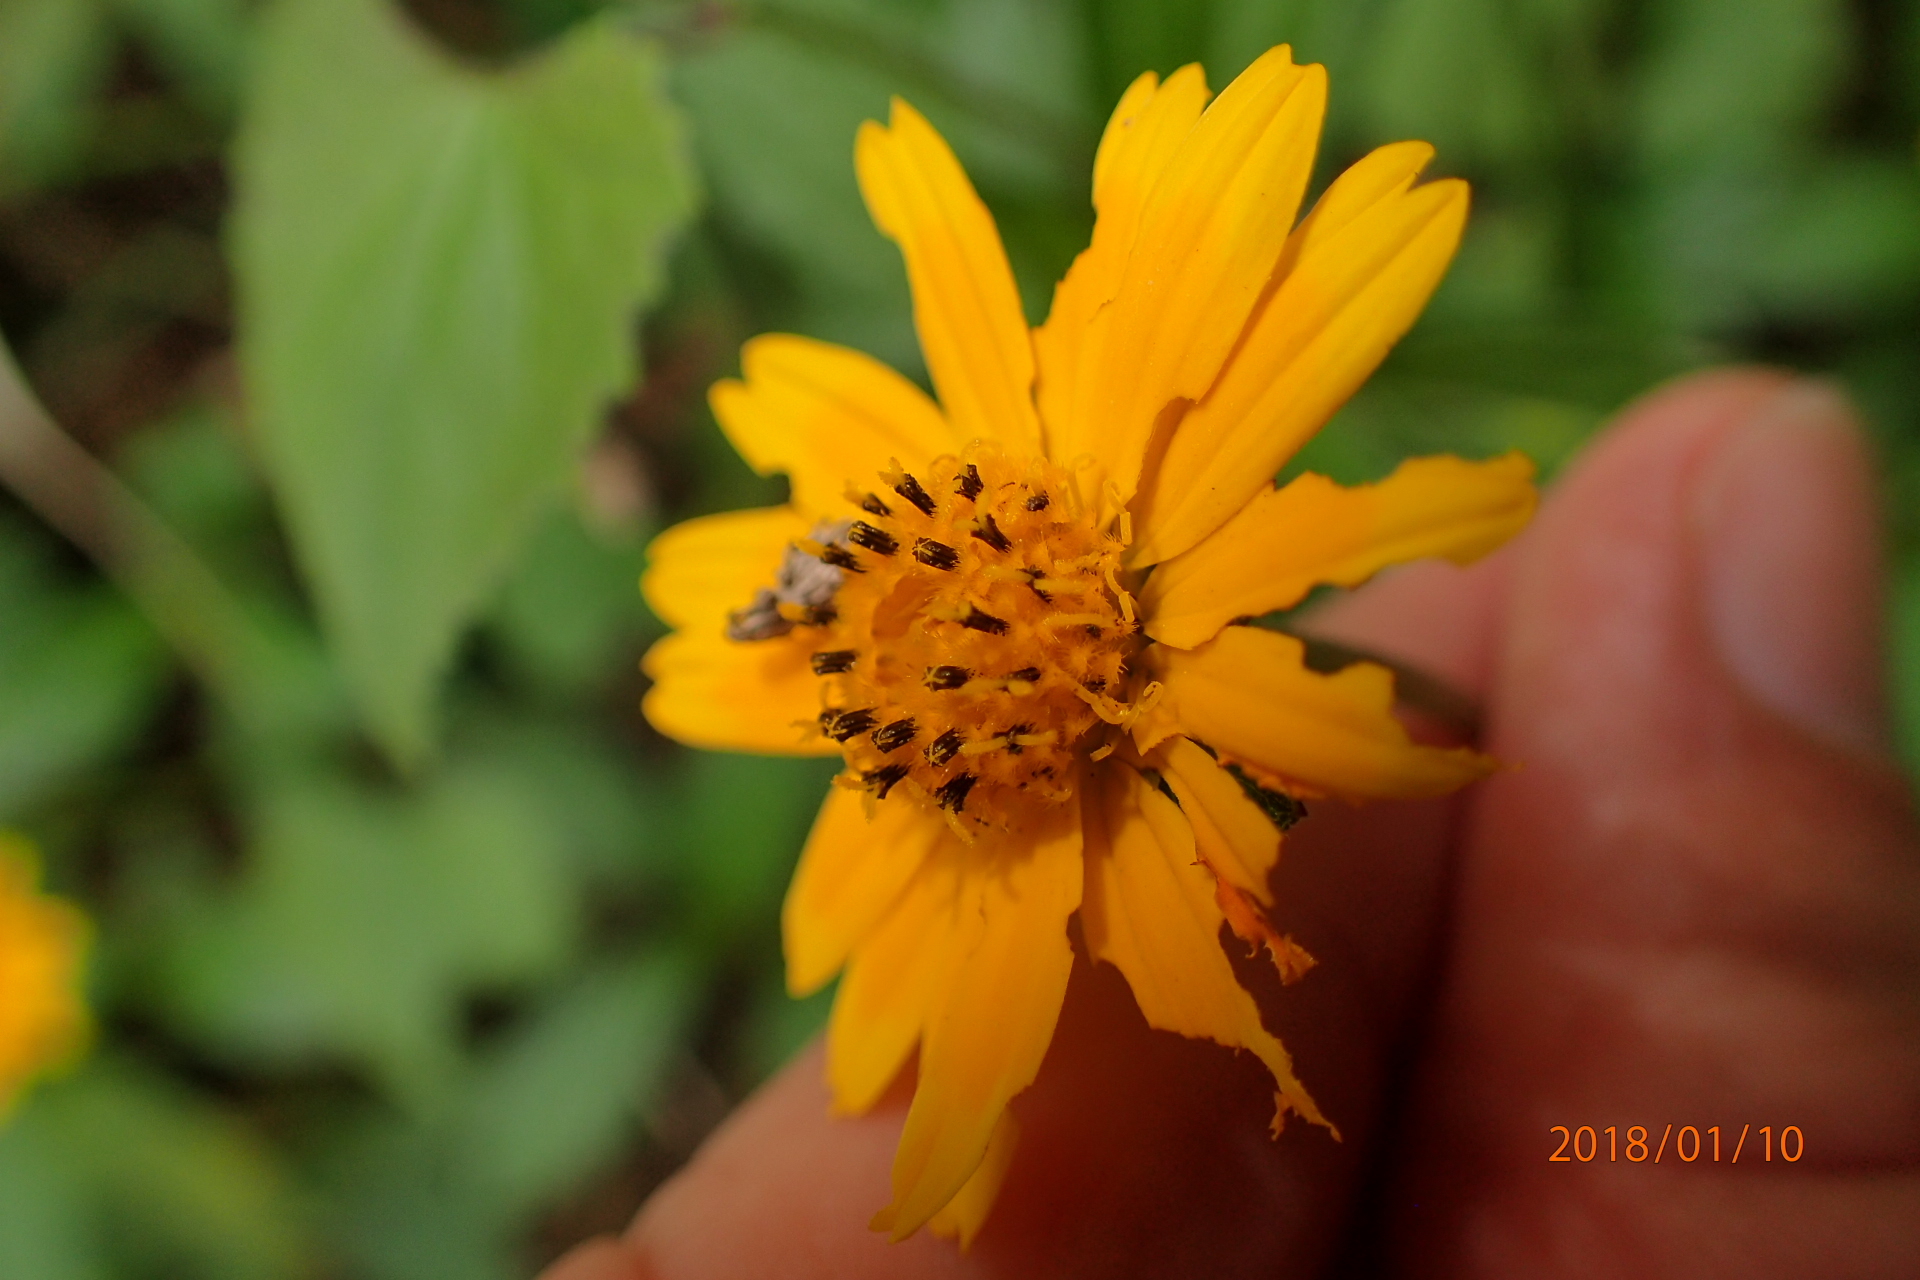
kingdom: Plantae
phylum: Tracheophyta
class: Magnoliopsida
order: Asterales
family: Asteraceae
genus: Sphagneticola
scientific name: Sphagneticola trilobata
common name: Bay biscayne creeping-oxeye
